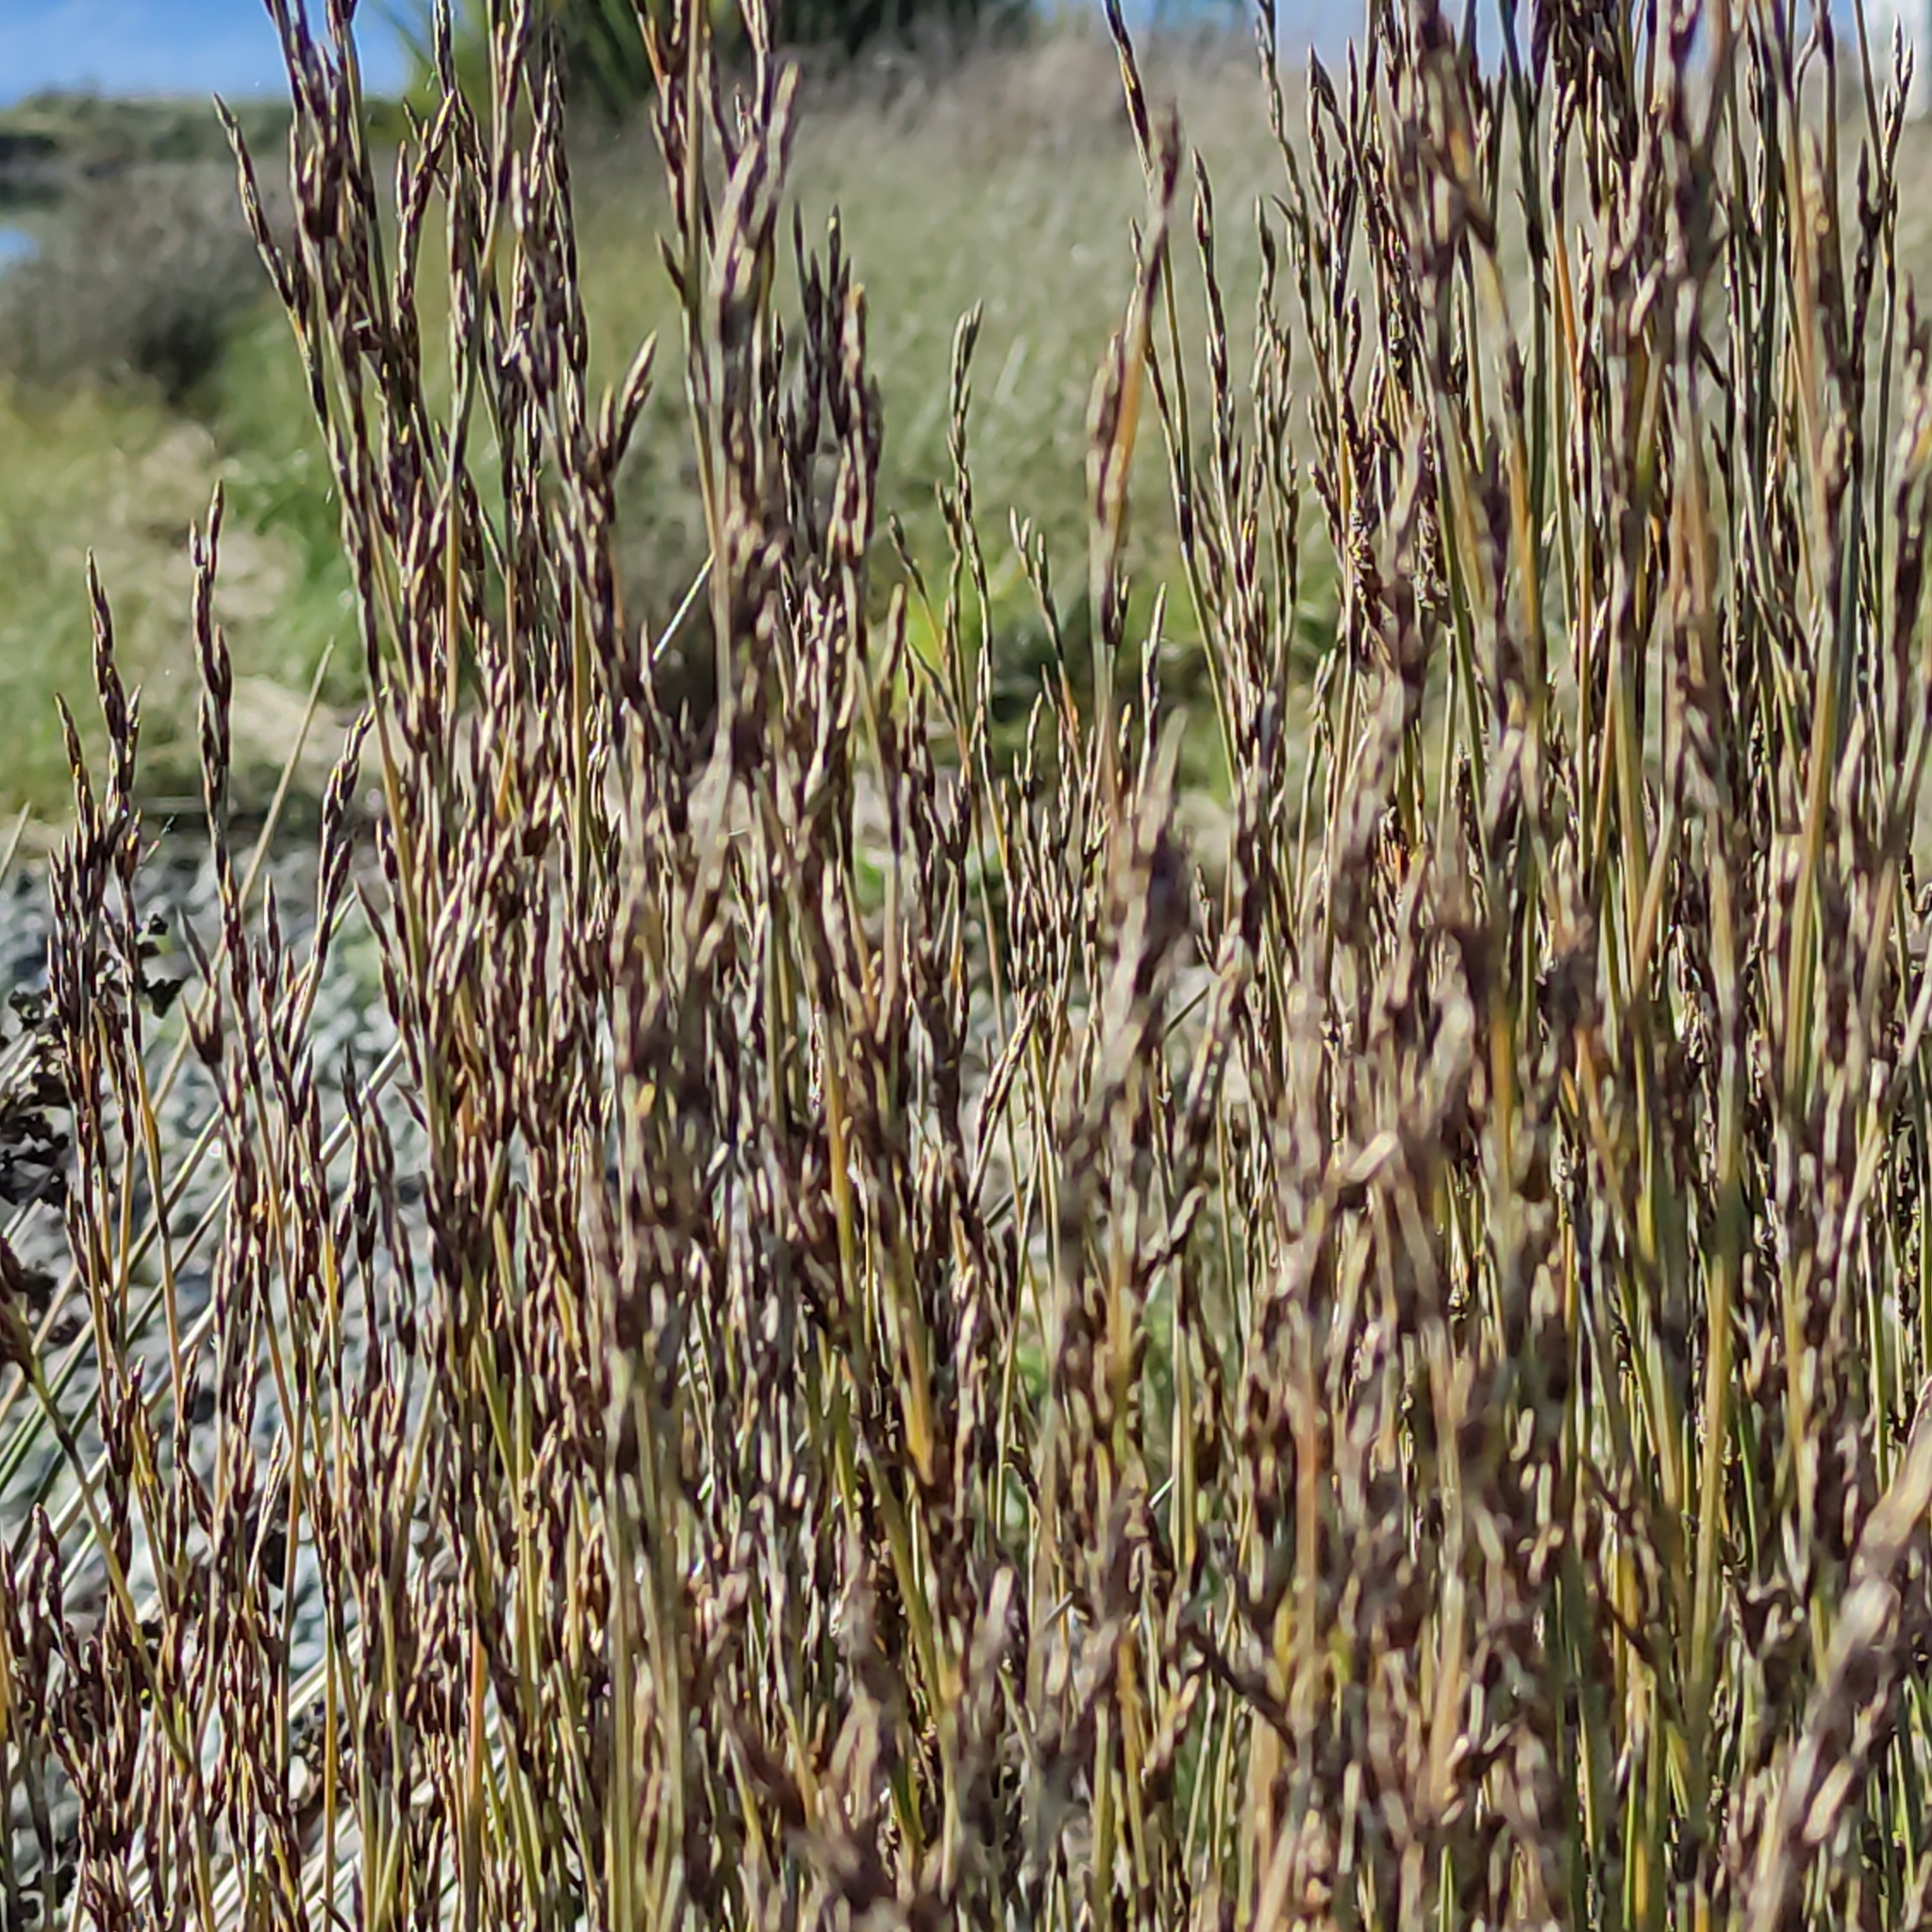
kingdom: Plantae
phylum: Tracheophyta
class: Liliopsida
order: Poales
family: Restionaceae
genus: Apodasmia
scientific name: Apodasmia similis
